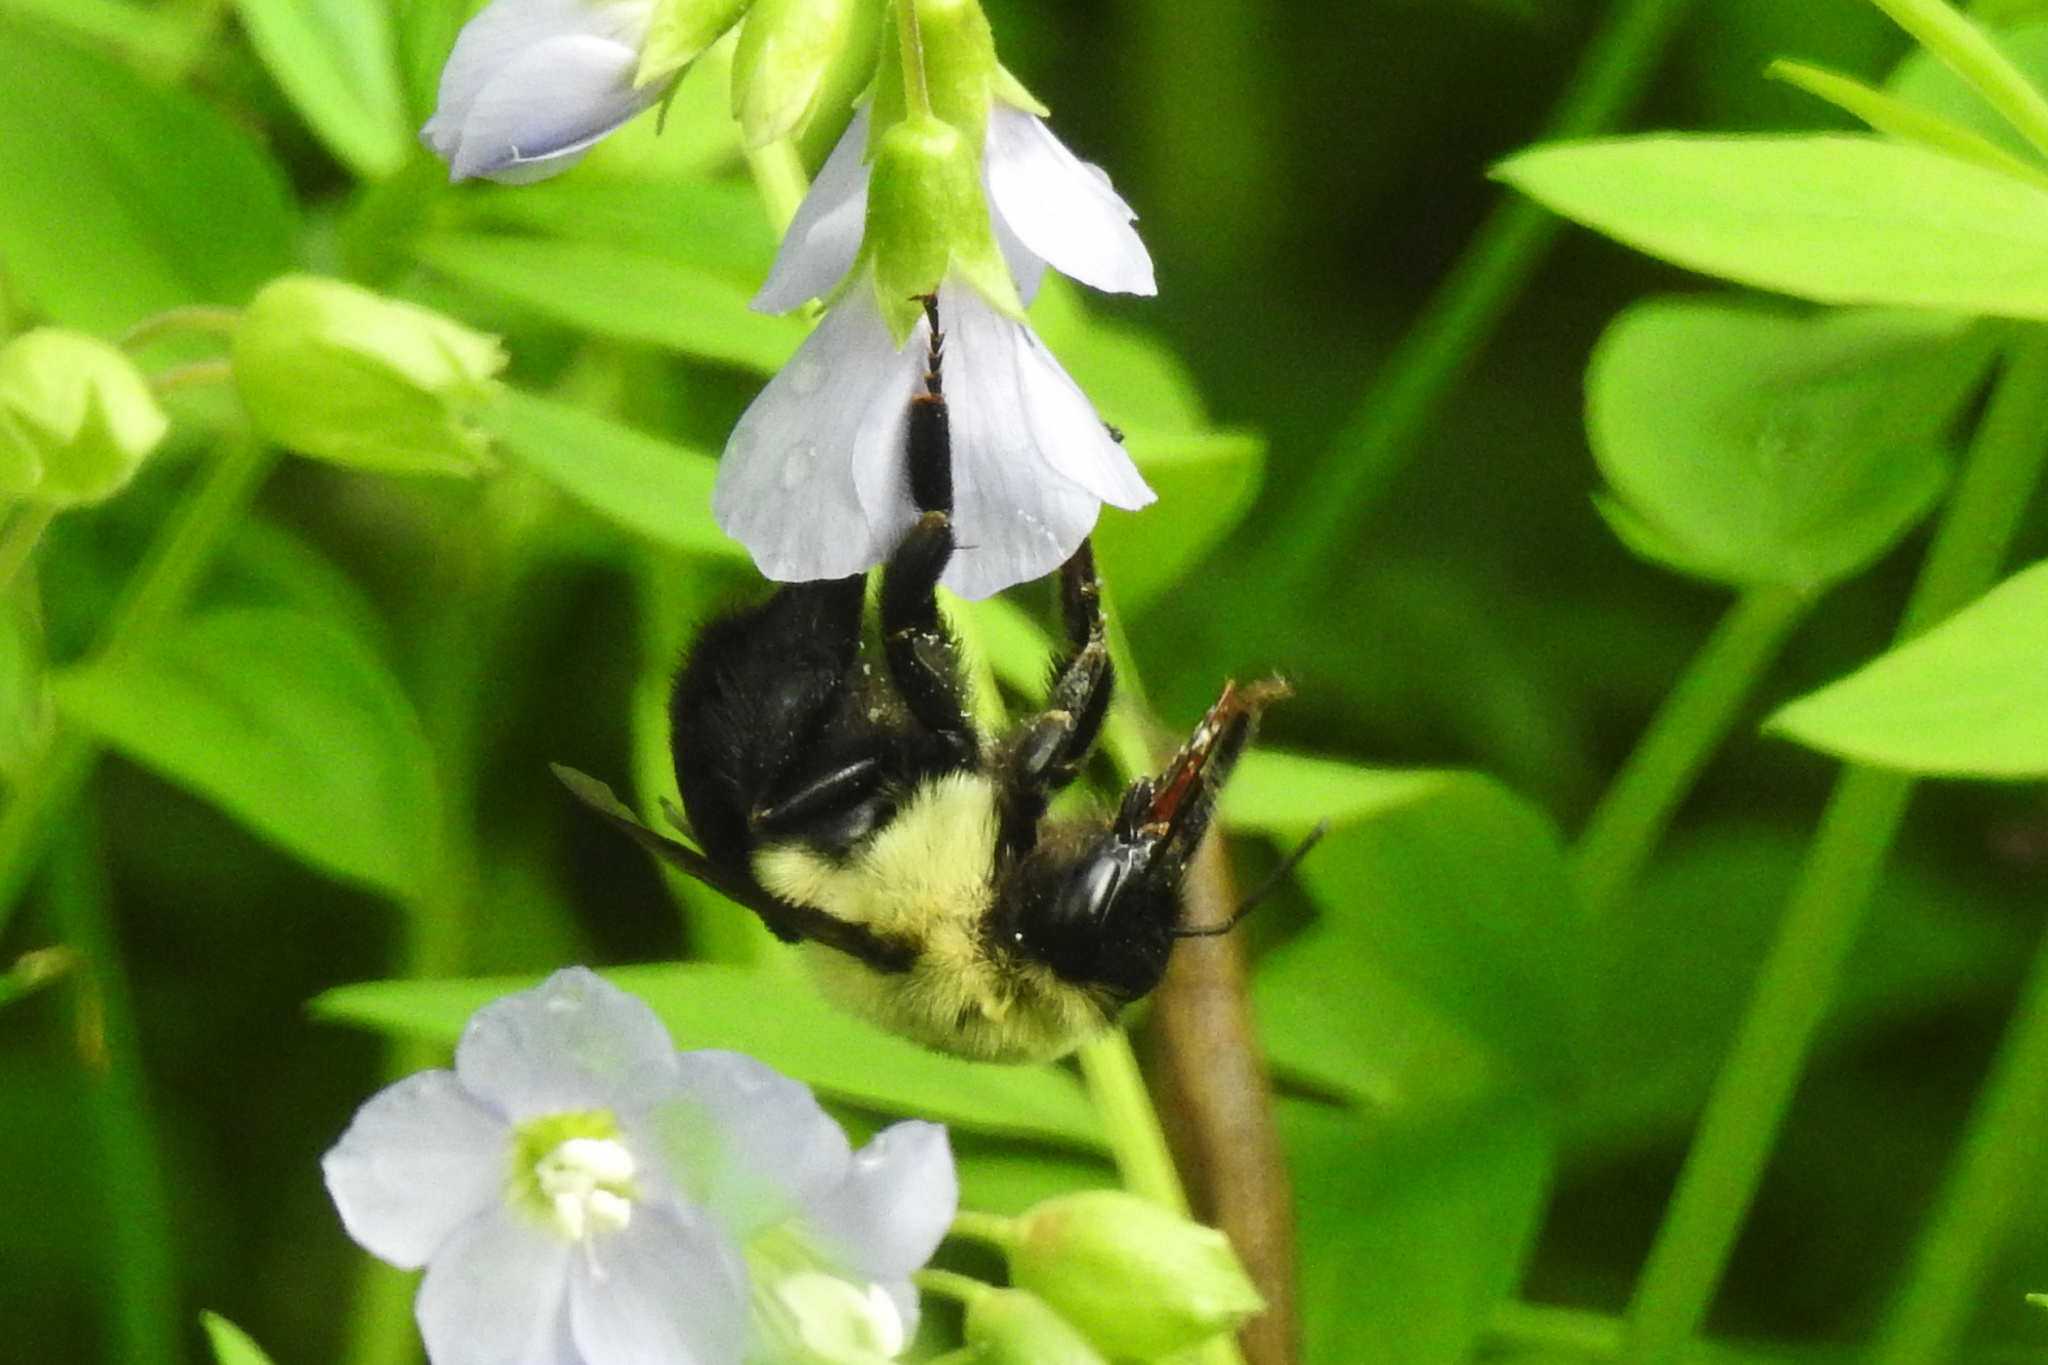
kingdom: Animalia
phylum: Arthropoda
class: Insecta
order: Hymenoptera
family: Apidae
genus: Bombus
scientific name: Bombus impatiens
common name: Common eastern bumble bee
